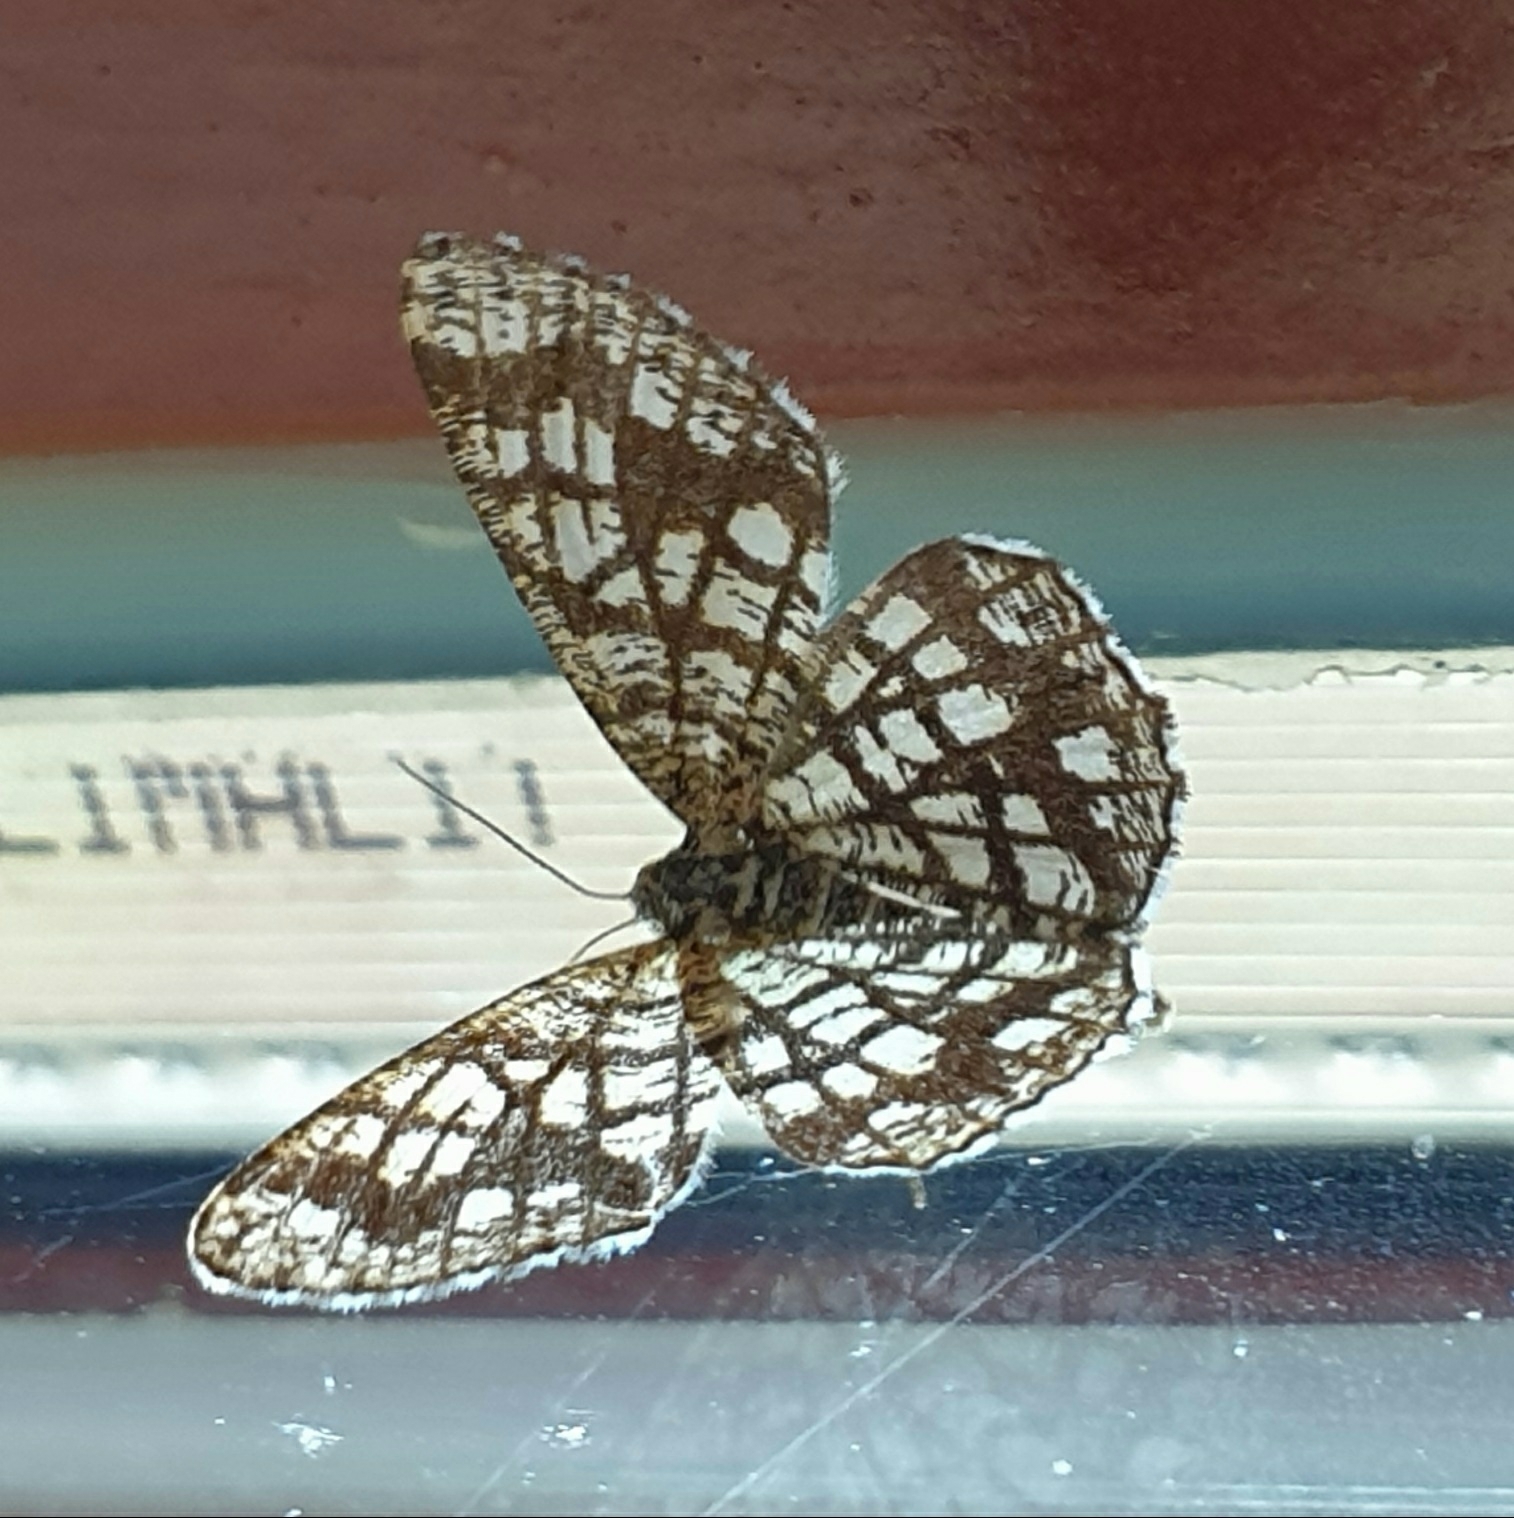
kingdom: Animalia
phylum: Arthropoda
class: Insecta
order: Lepidoptera
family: Geometridae
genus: Chiasmia
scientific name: Chiasmia clathrata
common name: Latticed heath
